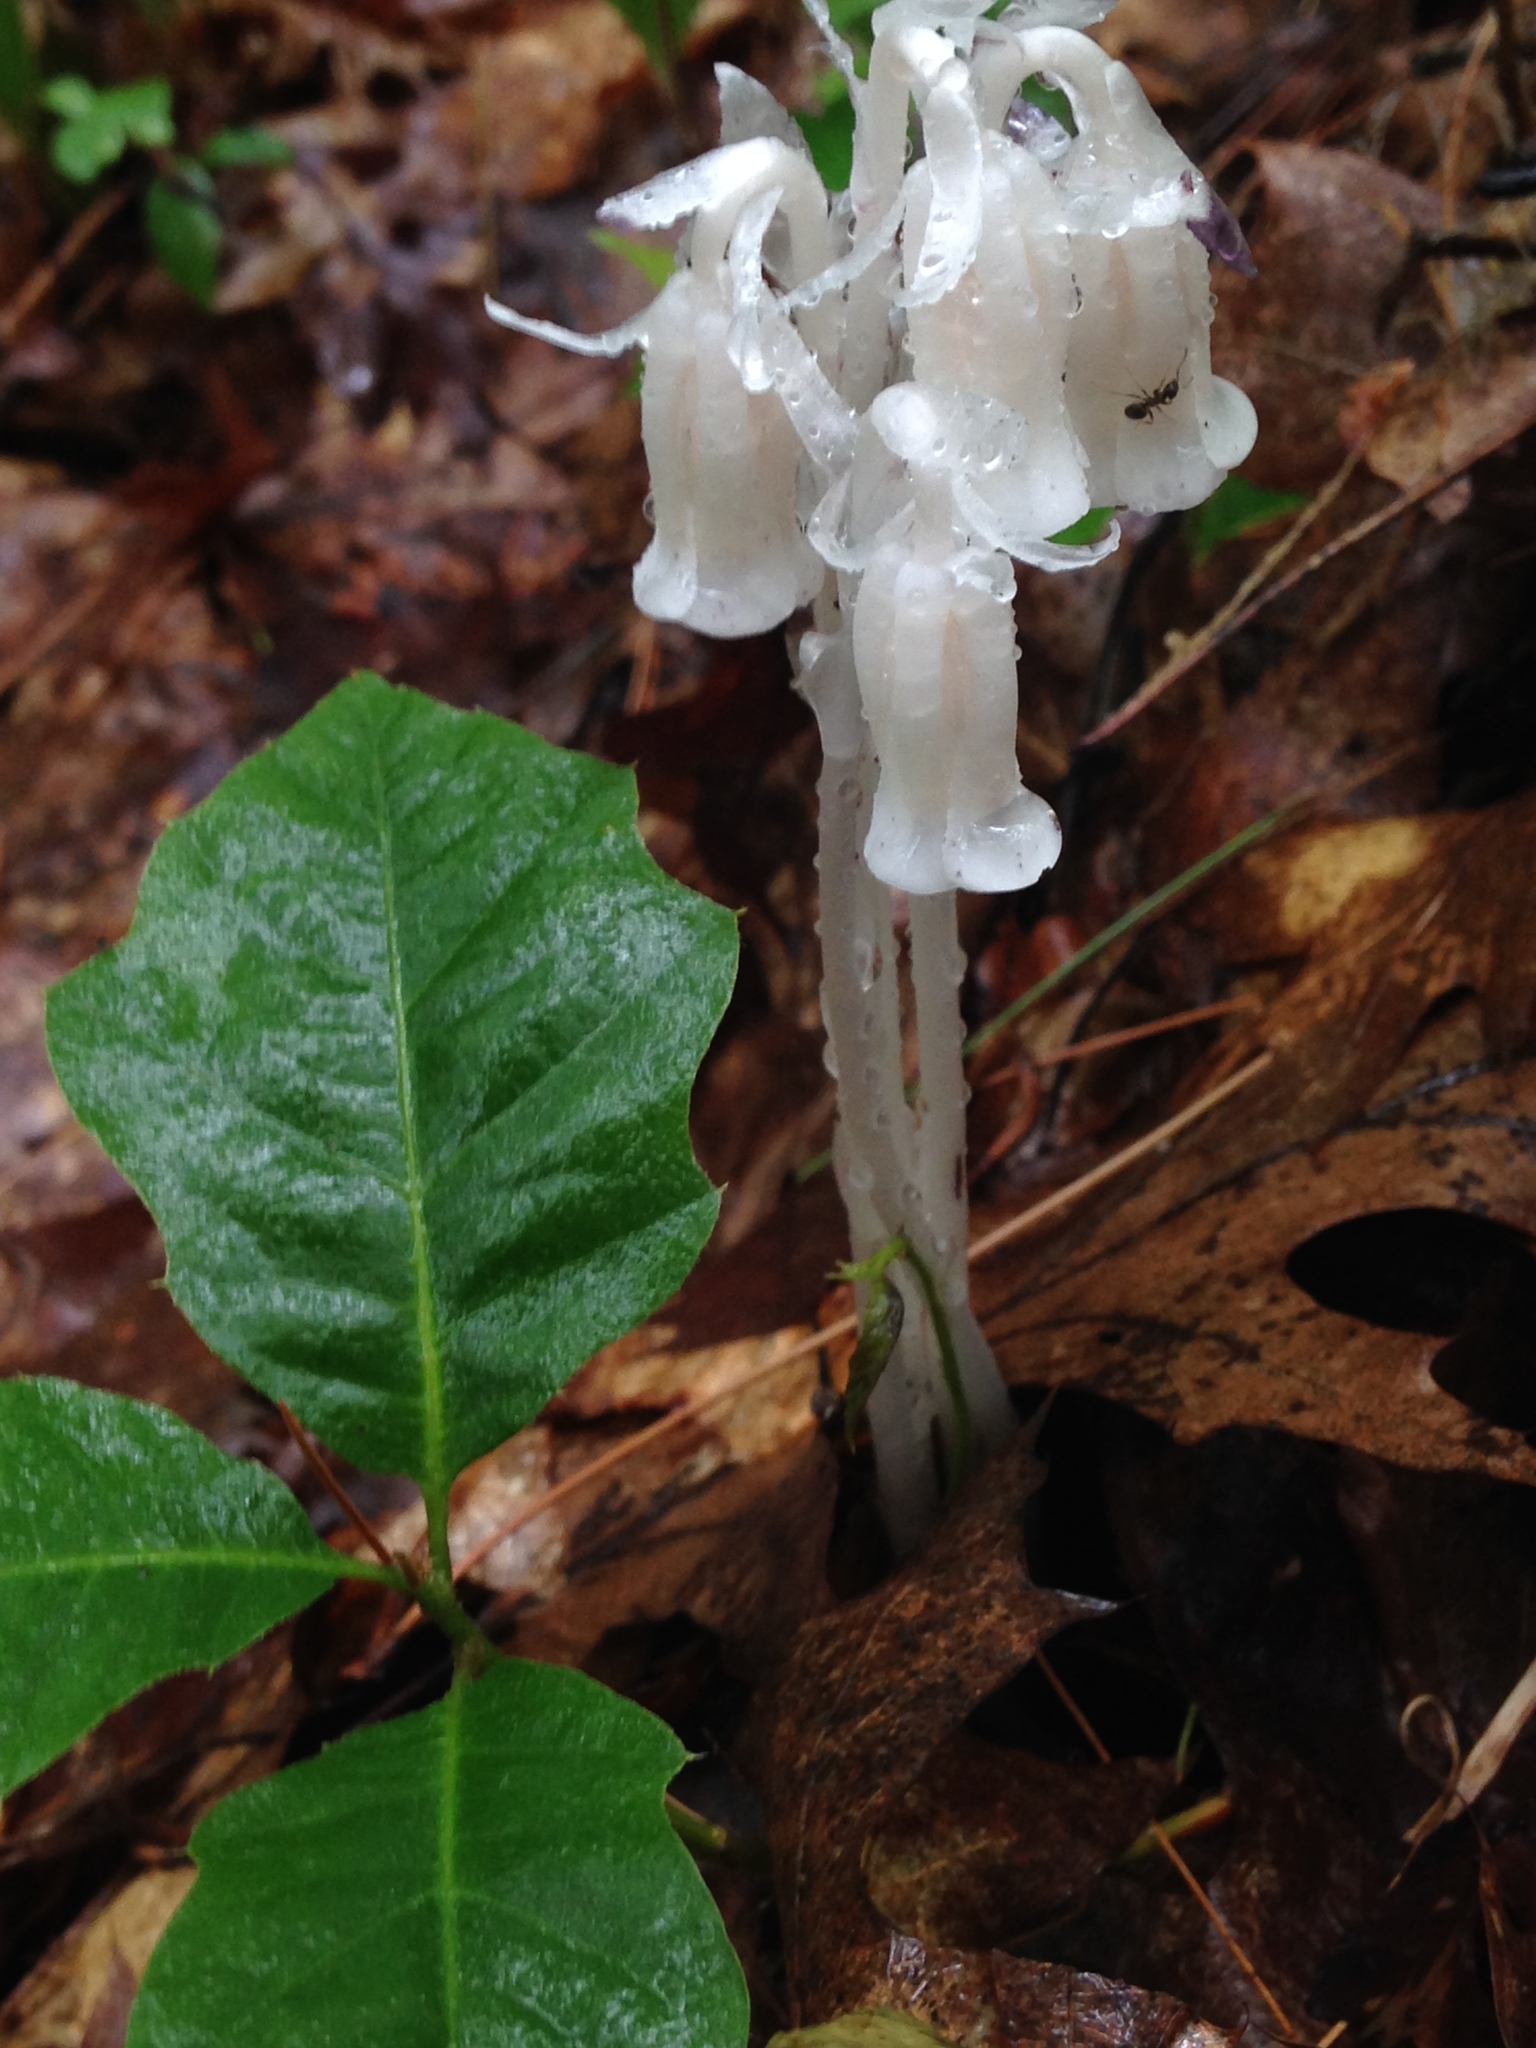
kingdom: Plantae
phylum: Tracheophyta
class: Magnoliopsida
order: Ericales
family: Ericaceae
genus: Monotropa
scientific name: Monotropa uniflora
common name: Convulsion root
